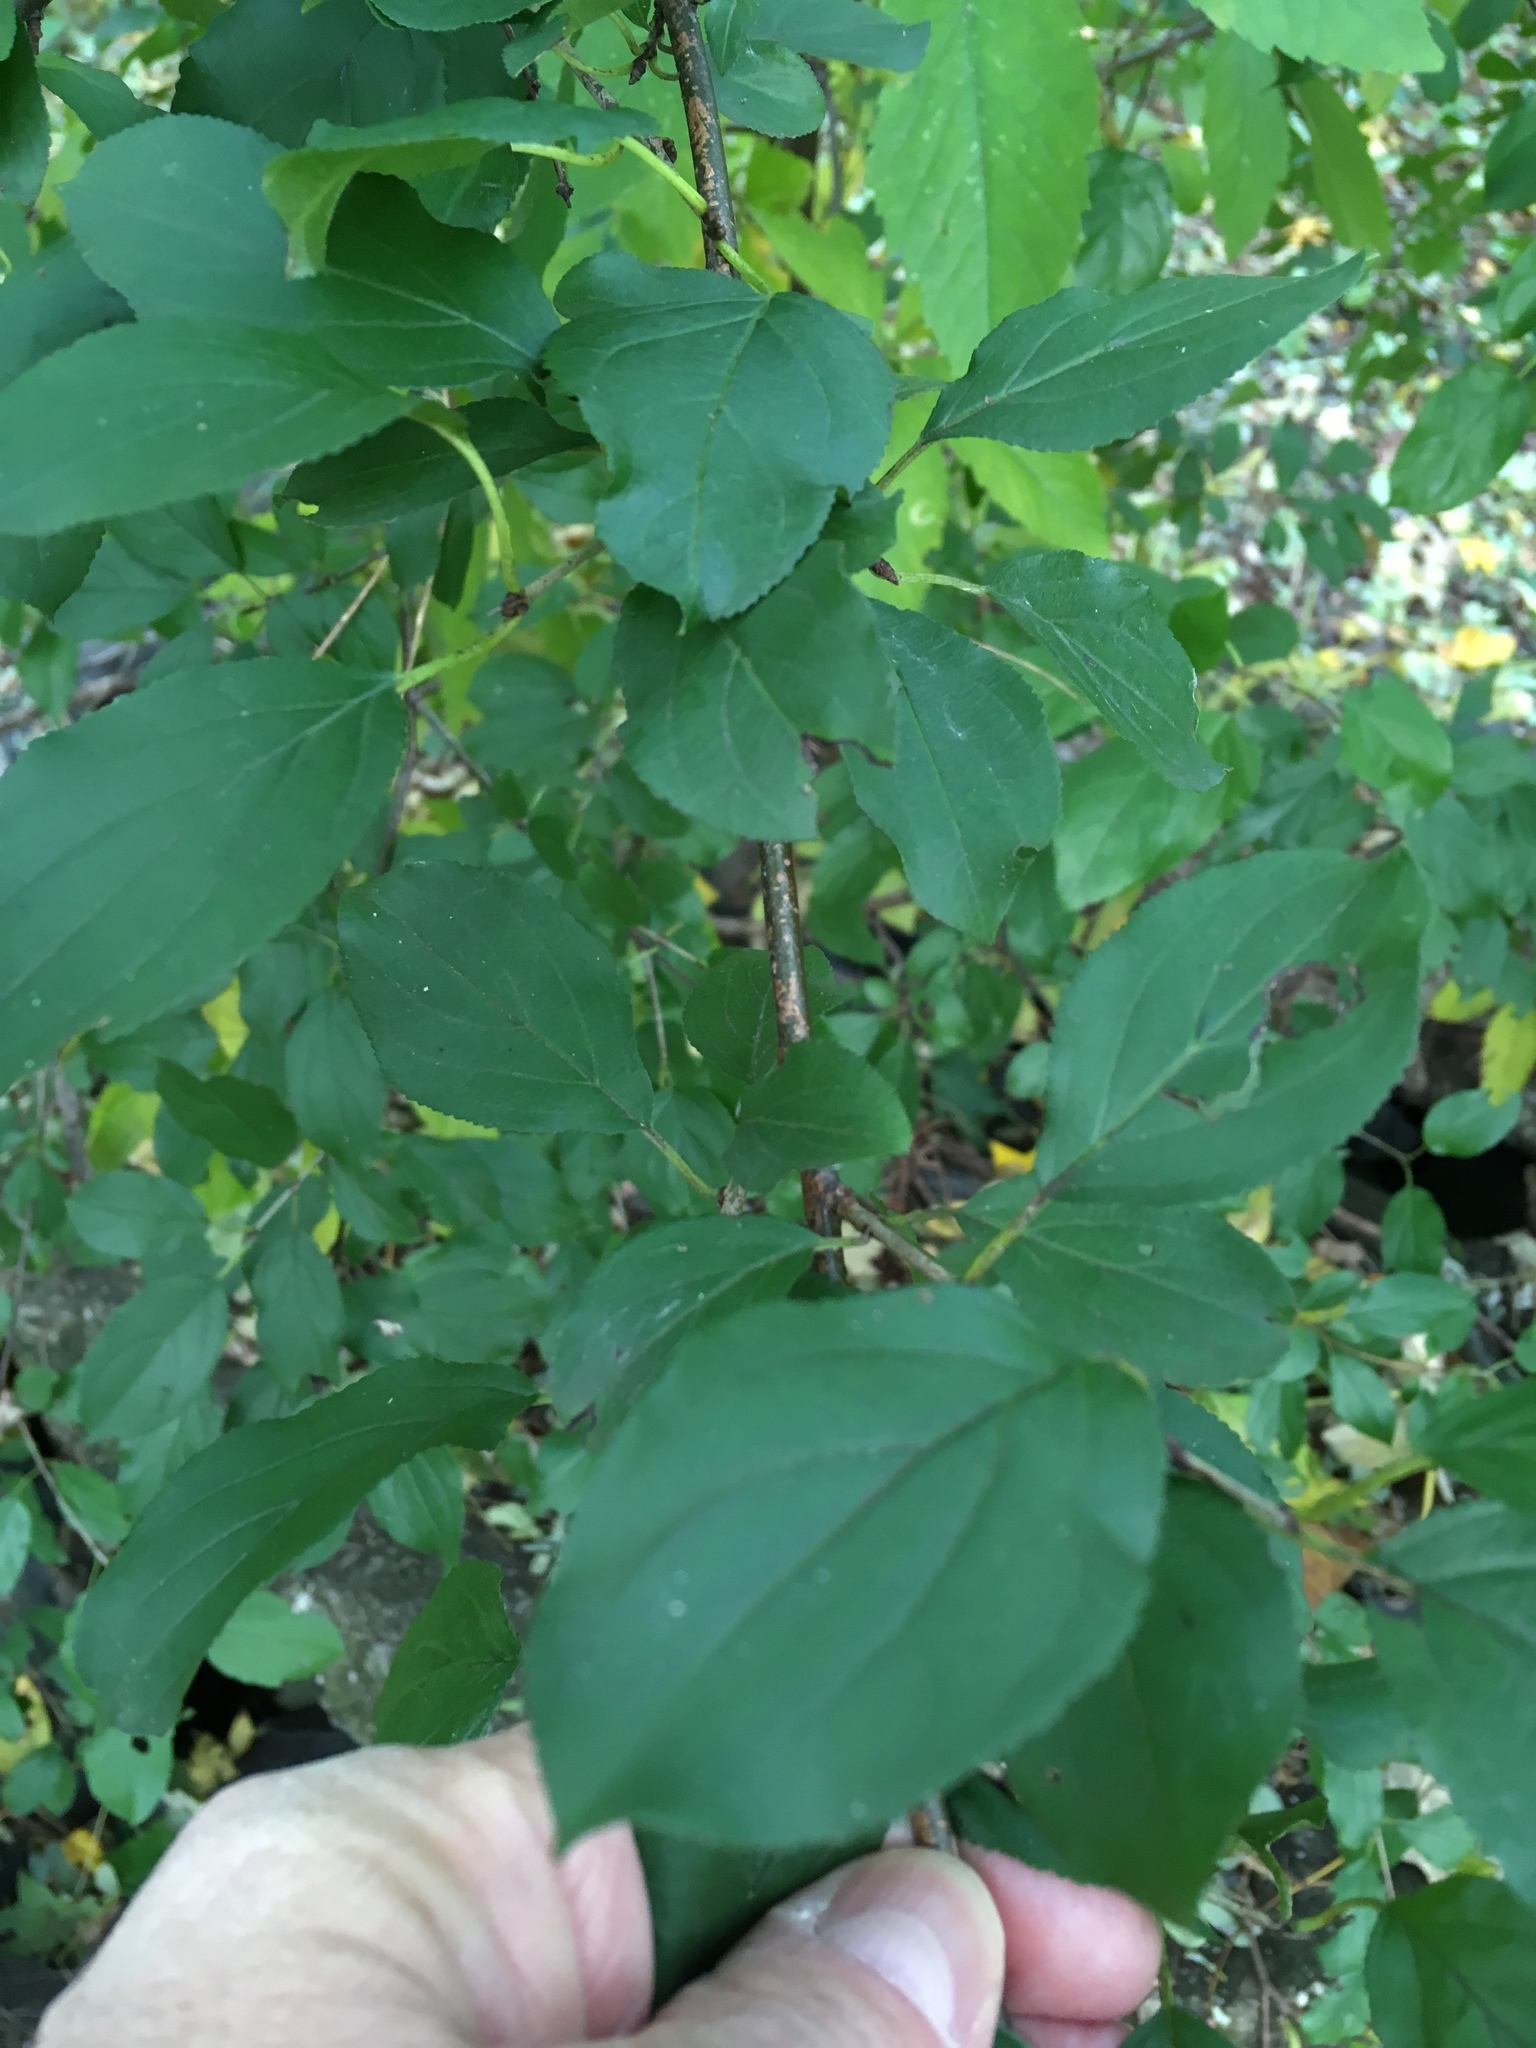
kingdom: Plantae
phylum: Tracheophyta
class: Magnoliopsida
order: Rosales
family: Rhamnaceae
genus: Rhamnus
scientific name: Rhamnus cathartica
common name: Common buckthorn
